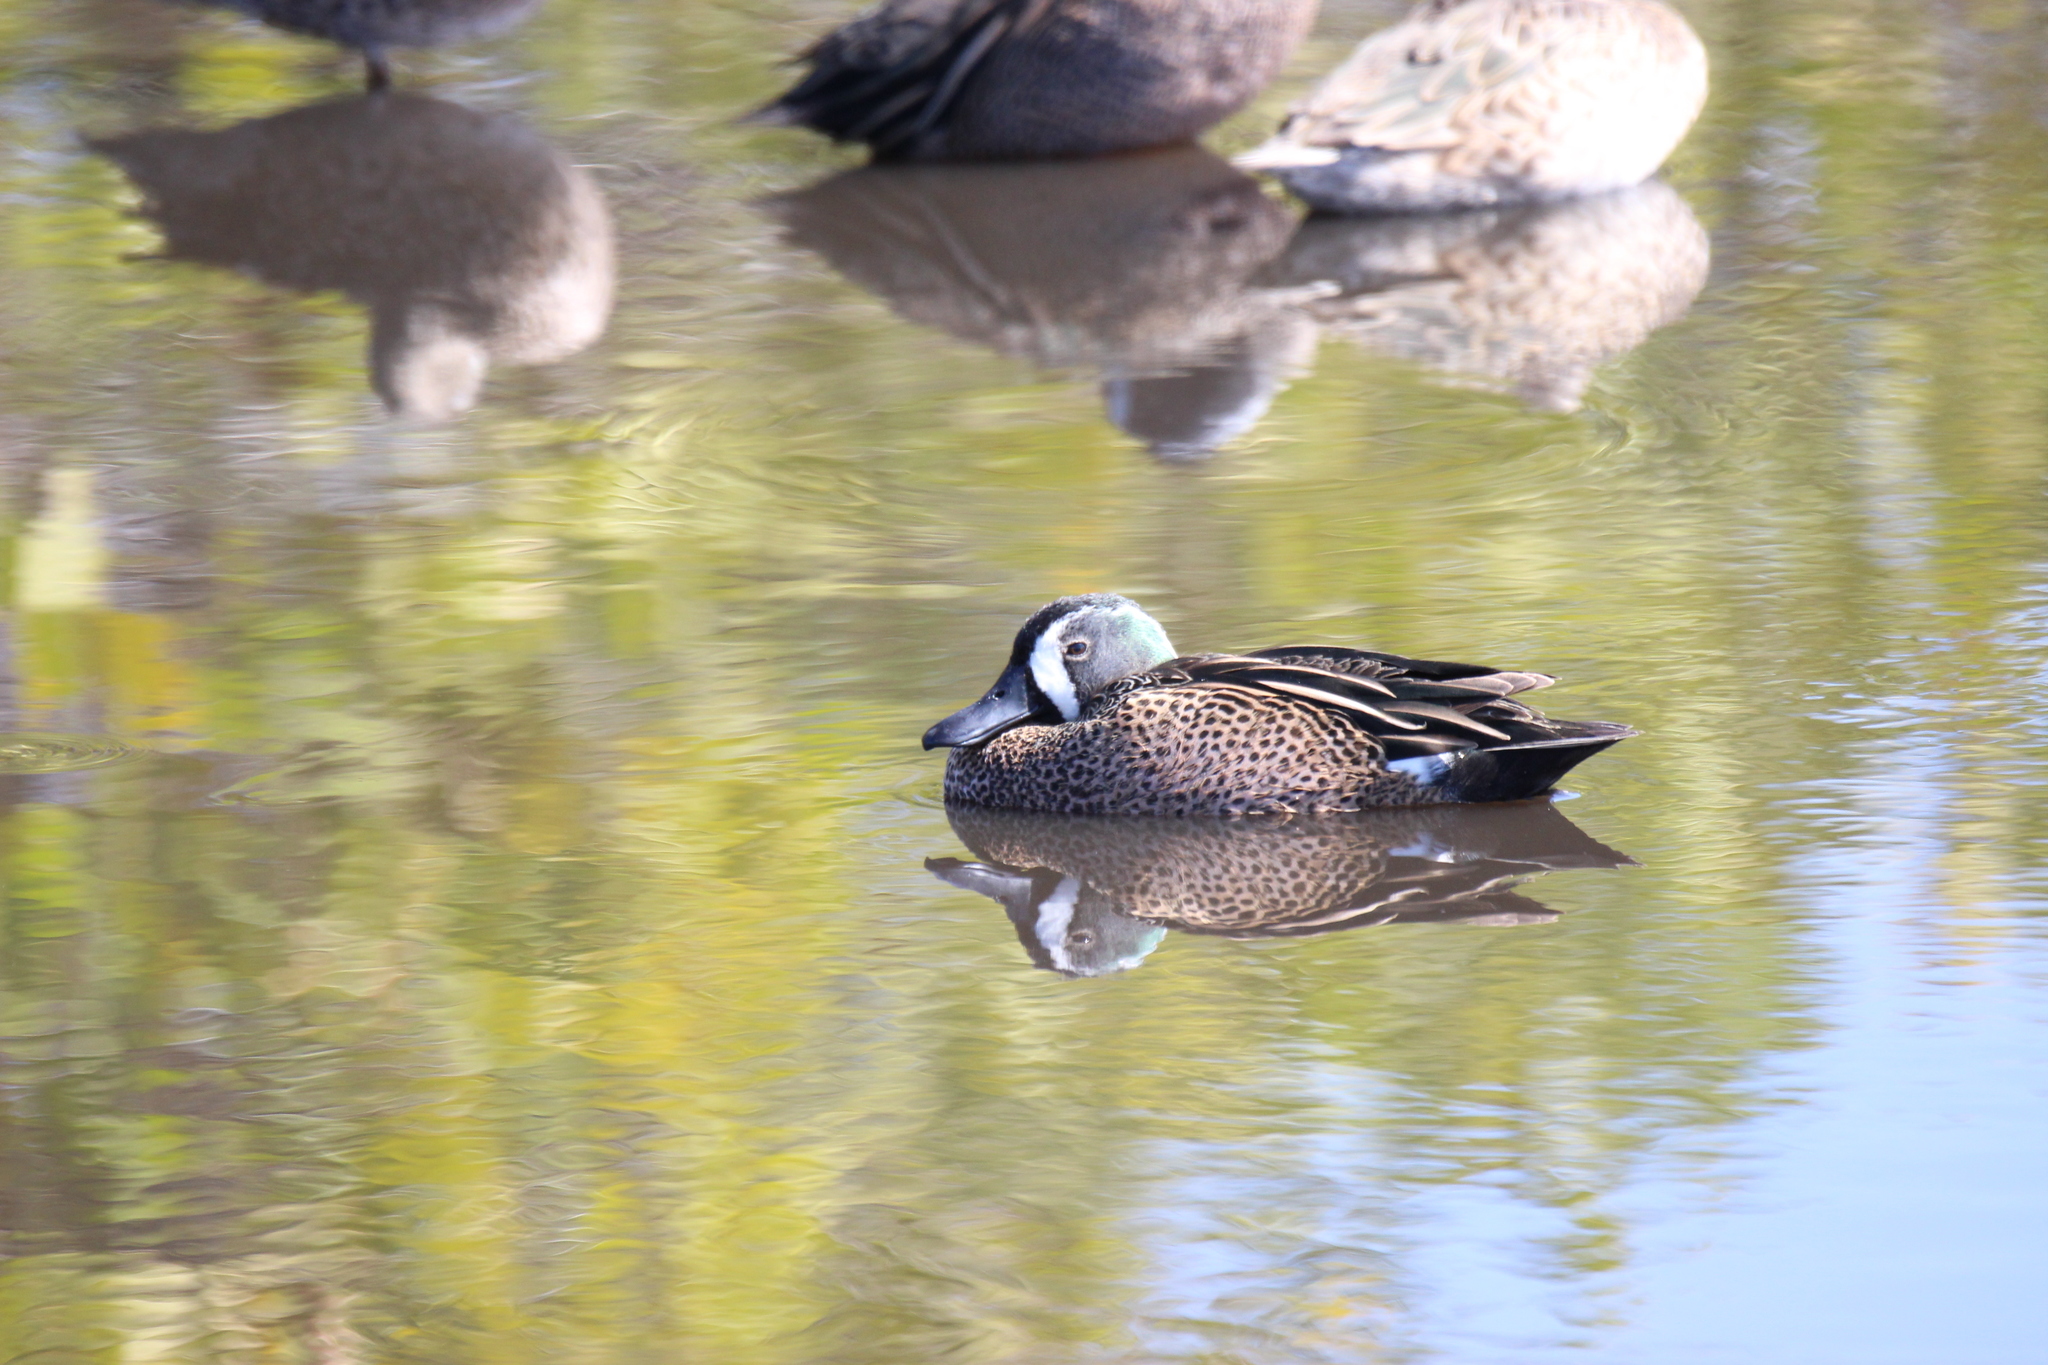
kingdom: Animalia
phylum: Chordata
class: Aves
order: Anseriformes
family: Anatidae
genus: Spatula
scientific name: Spatula discors
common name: Blue-winged teal
